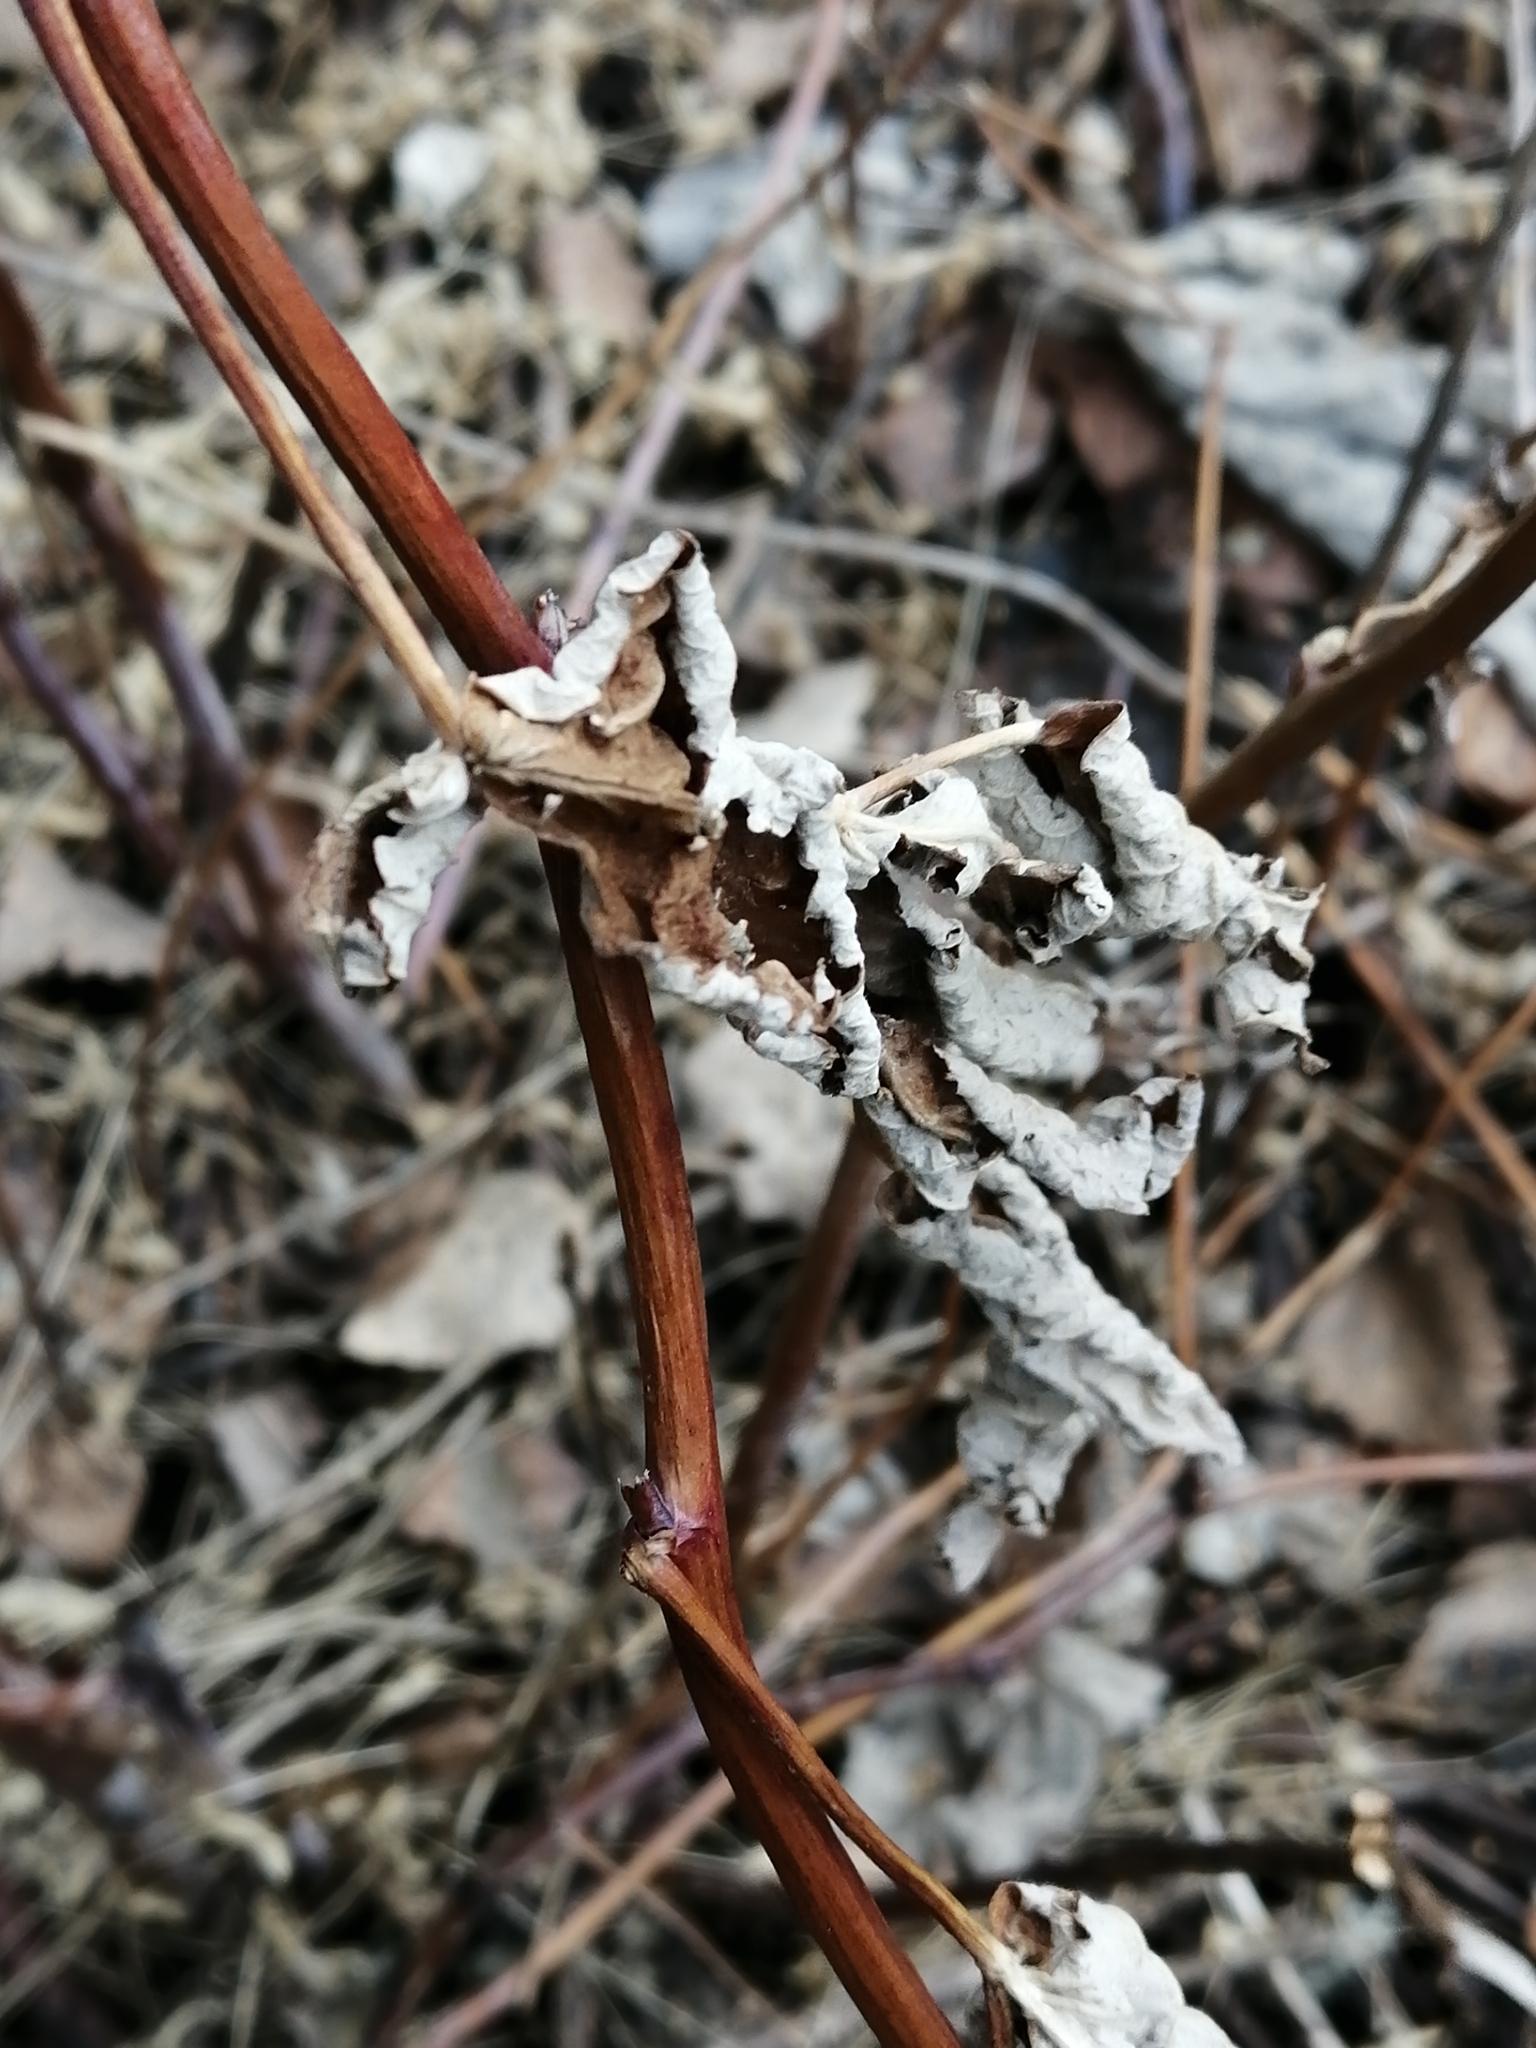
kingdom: Plantae
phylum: Tracheophyta
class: Magnoliopsida
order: Rosales
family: Rosaceae
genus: Rubus
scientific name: Rubus idaeus
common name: Raspberry
